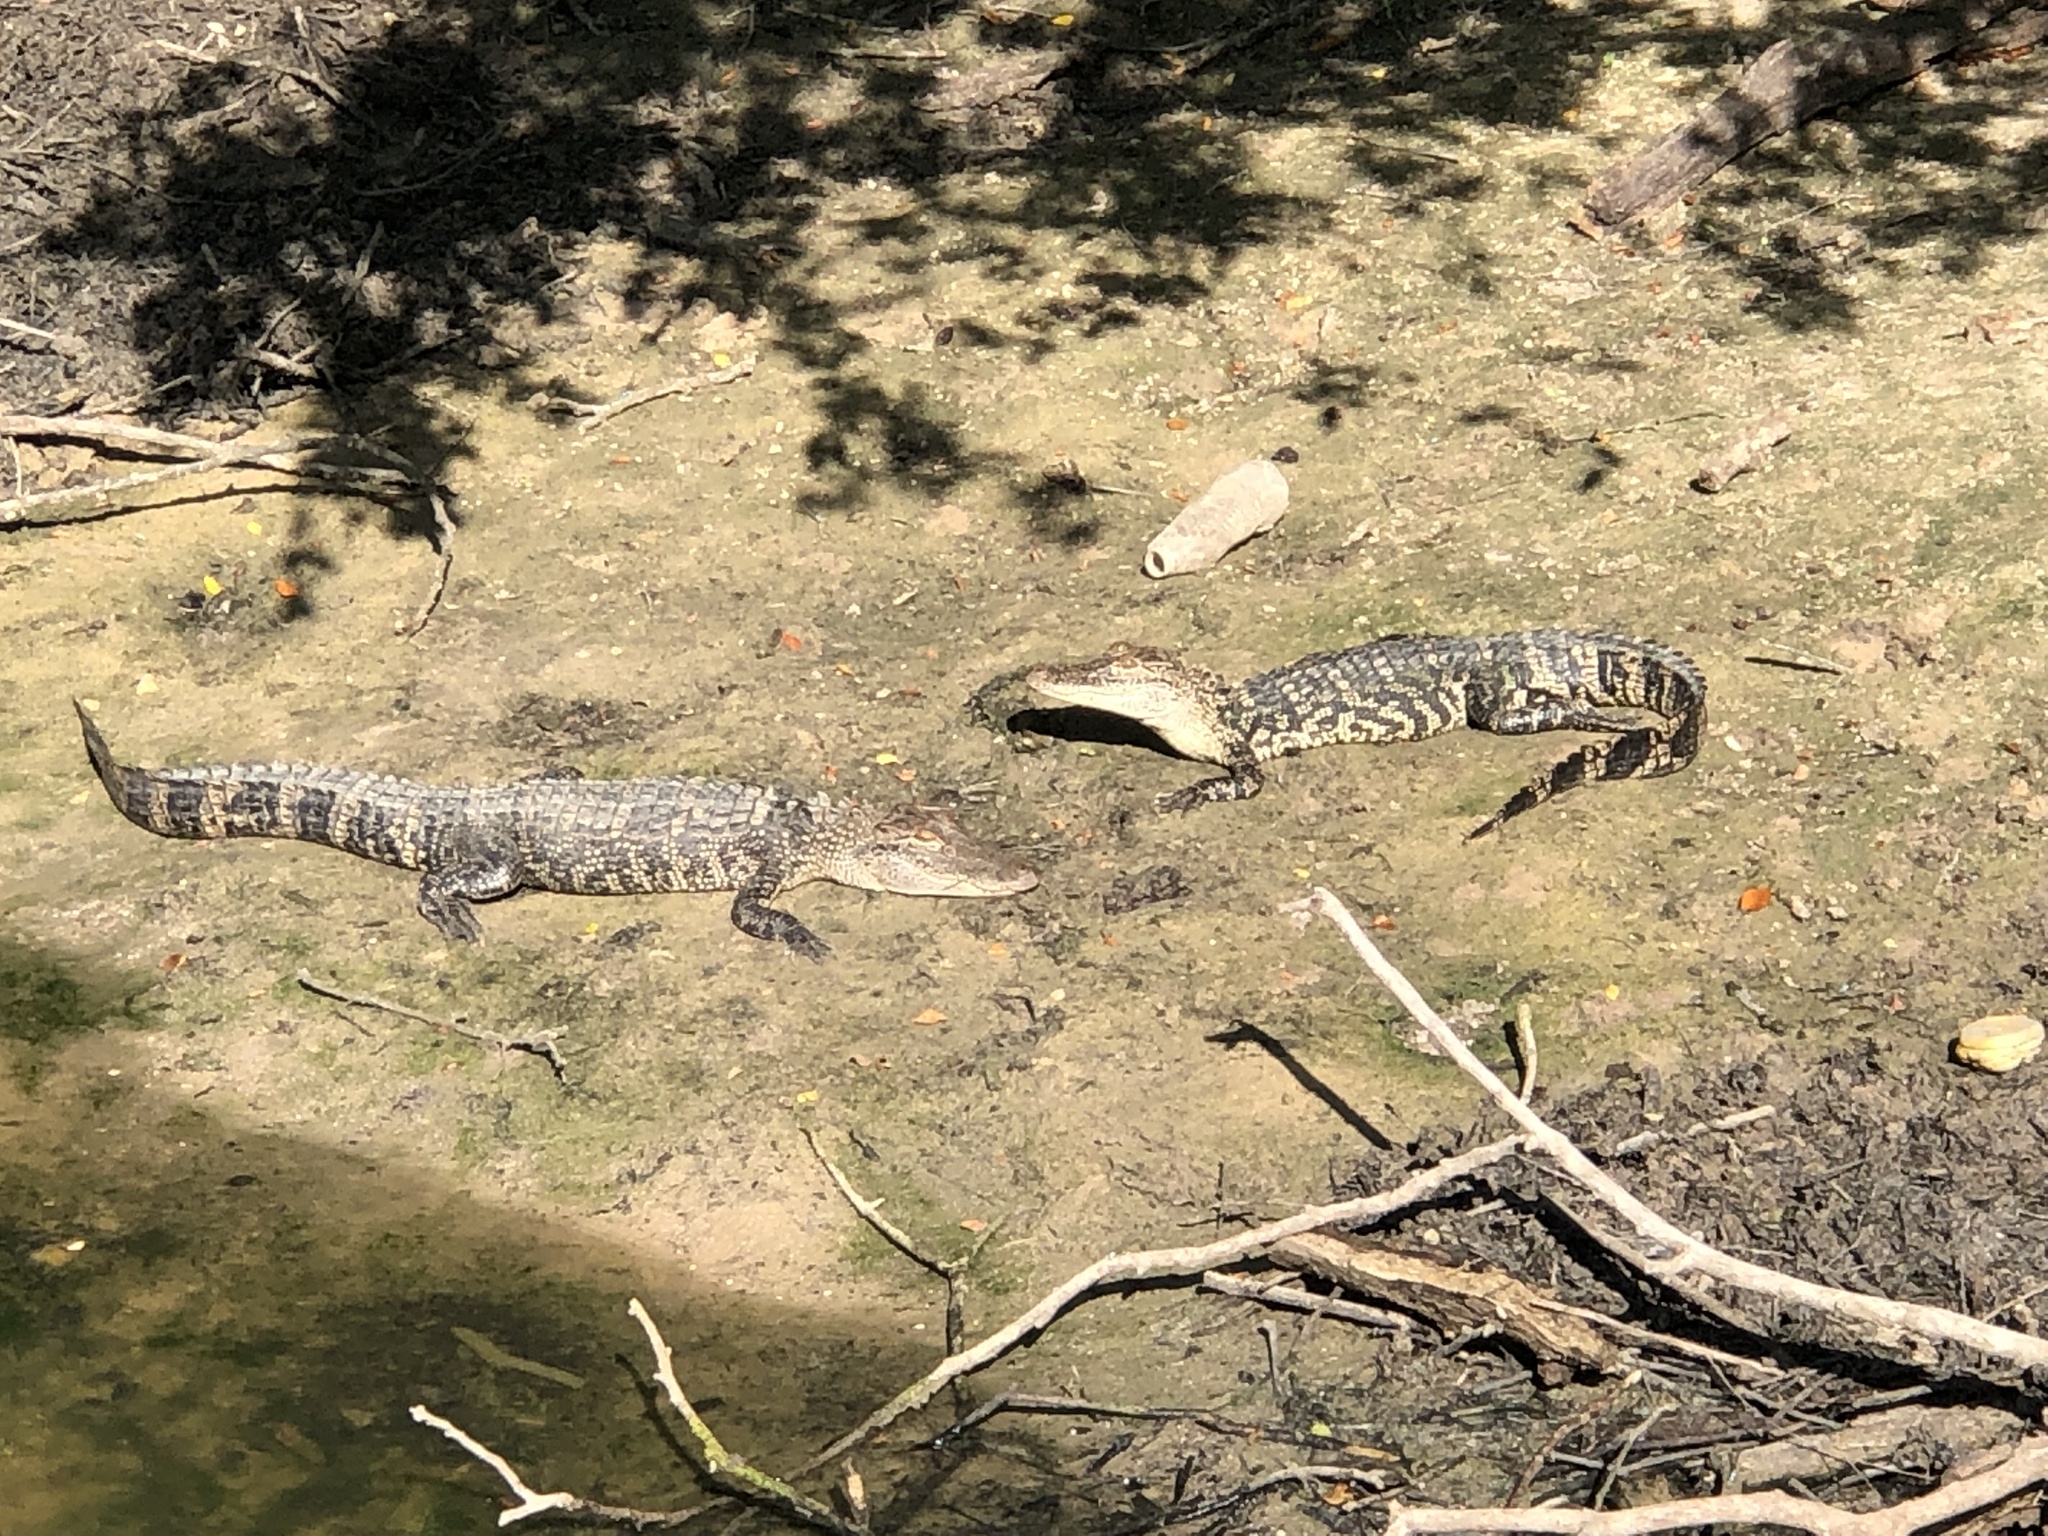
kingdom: Animalia
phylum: Chordata
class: Crocodylia
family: Alligatoridae
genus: Alligator
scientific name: Alligator mississippiensis
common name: American alligator
